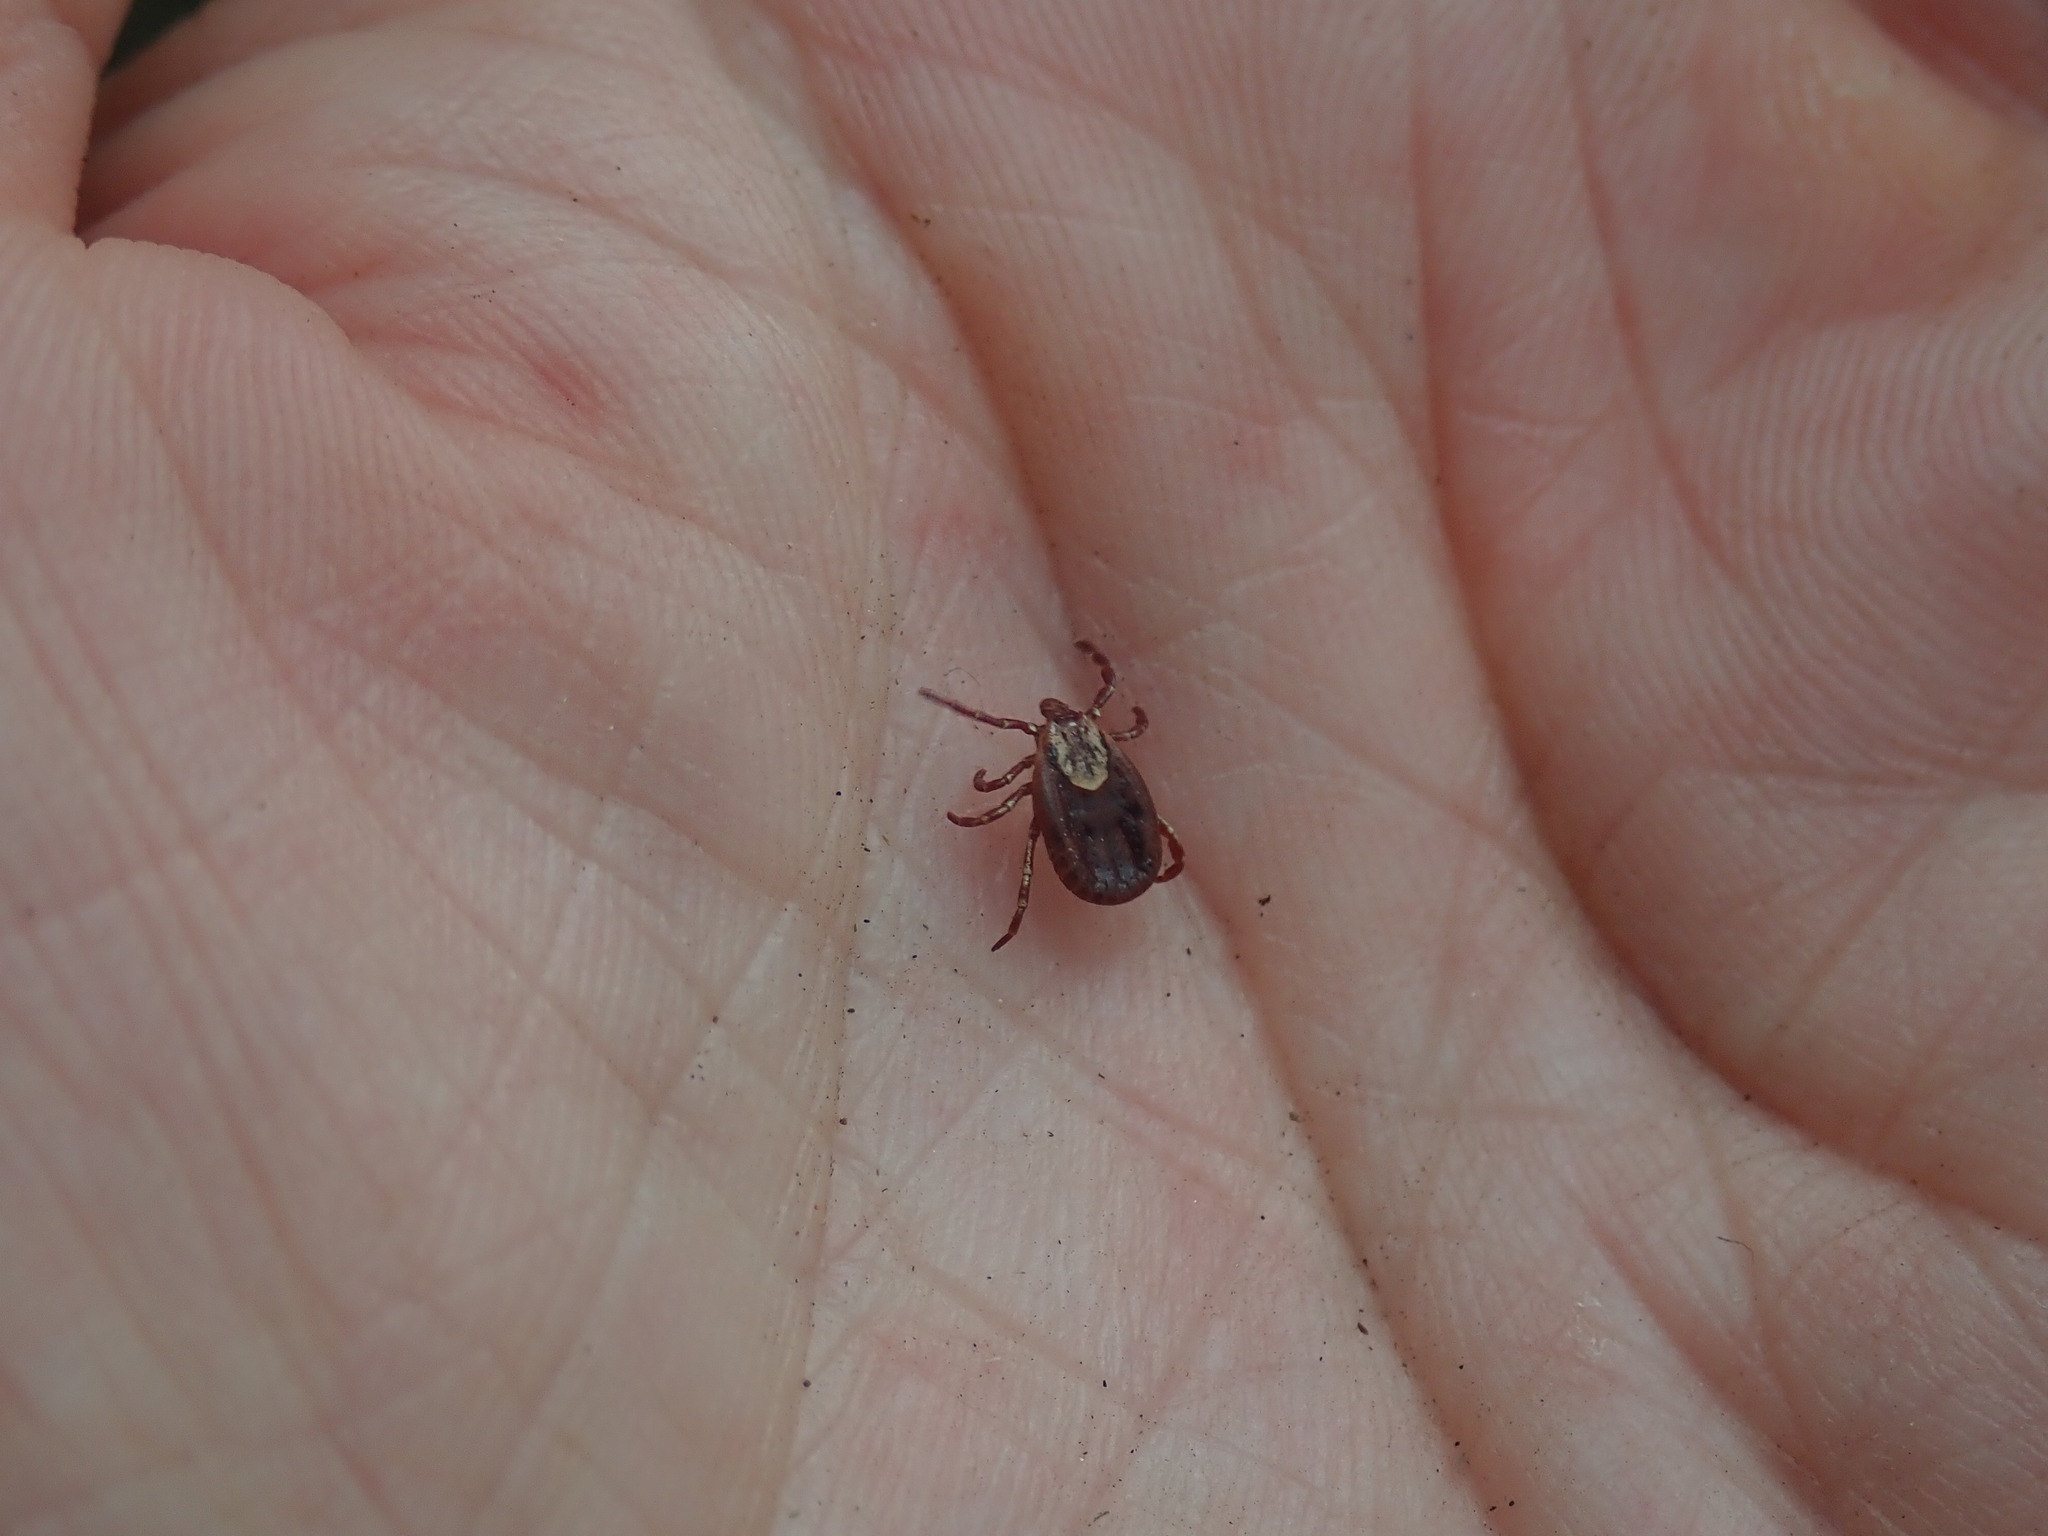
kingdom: Animalia
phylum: Arthropoda
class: Arachnida
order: Ixodida
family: Ixodidae
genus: Dermacentor
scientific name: Dermacentor variabilis
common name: American dog tick
